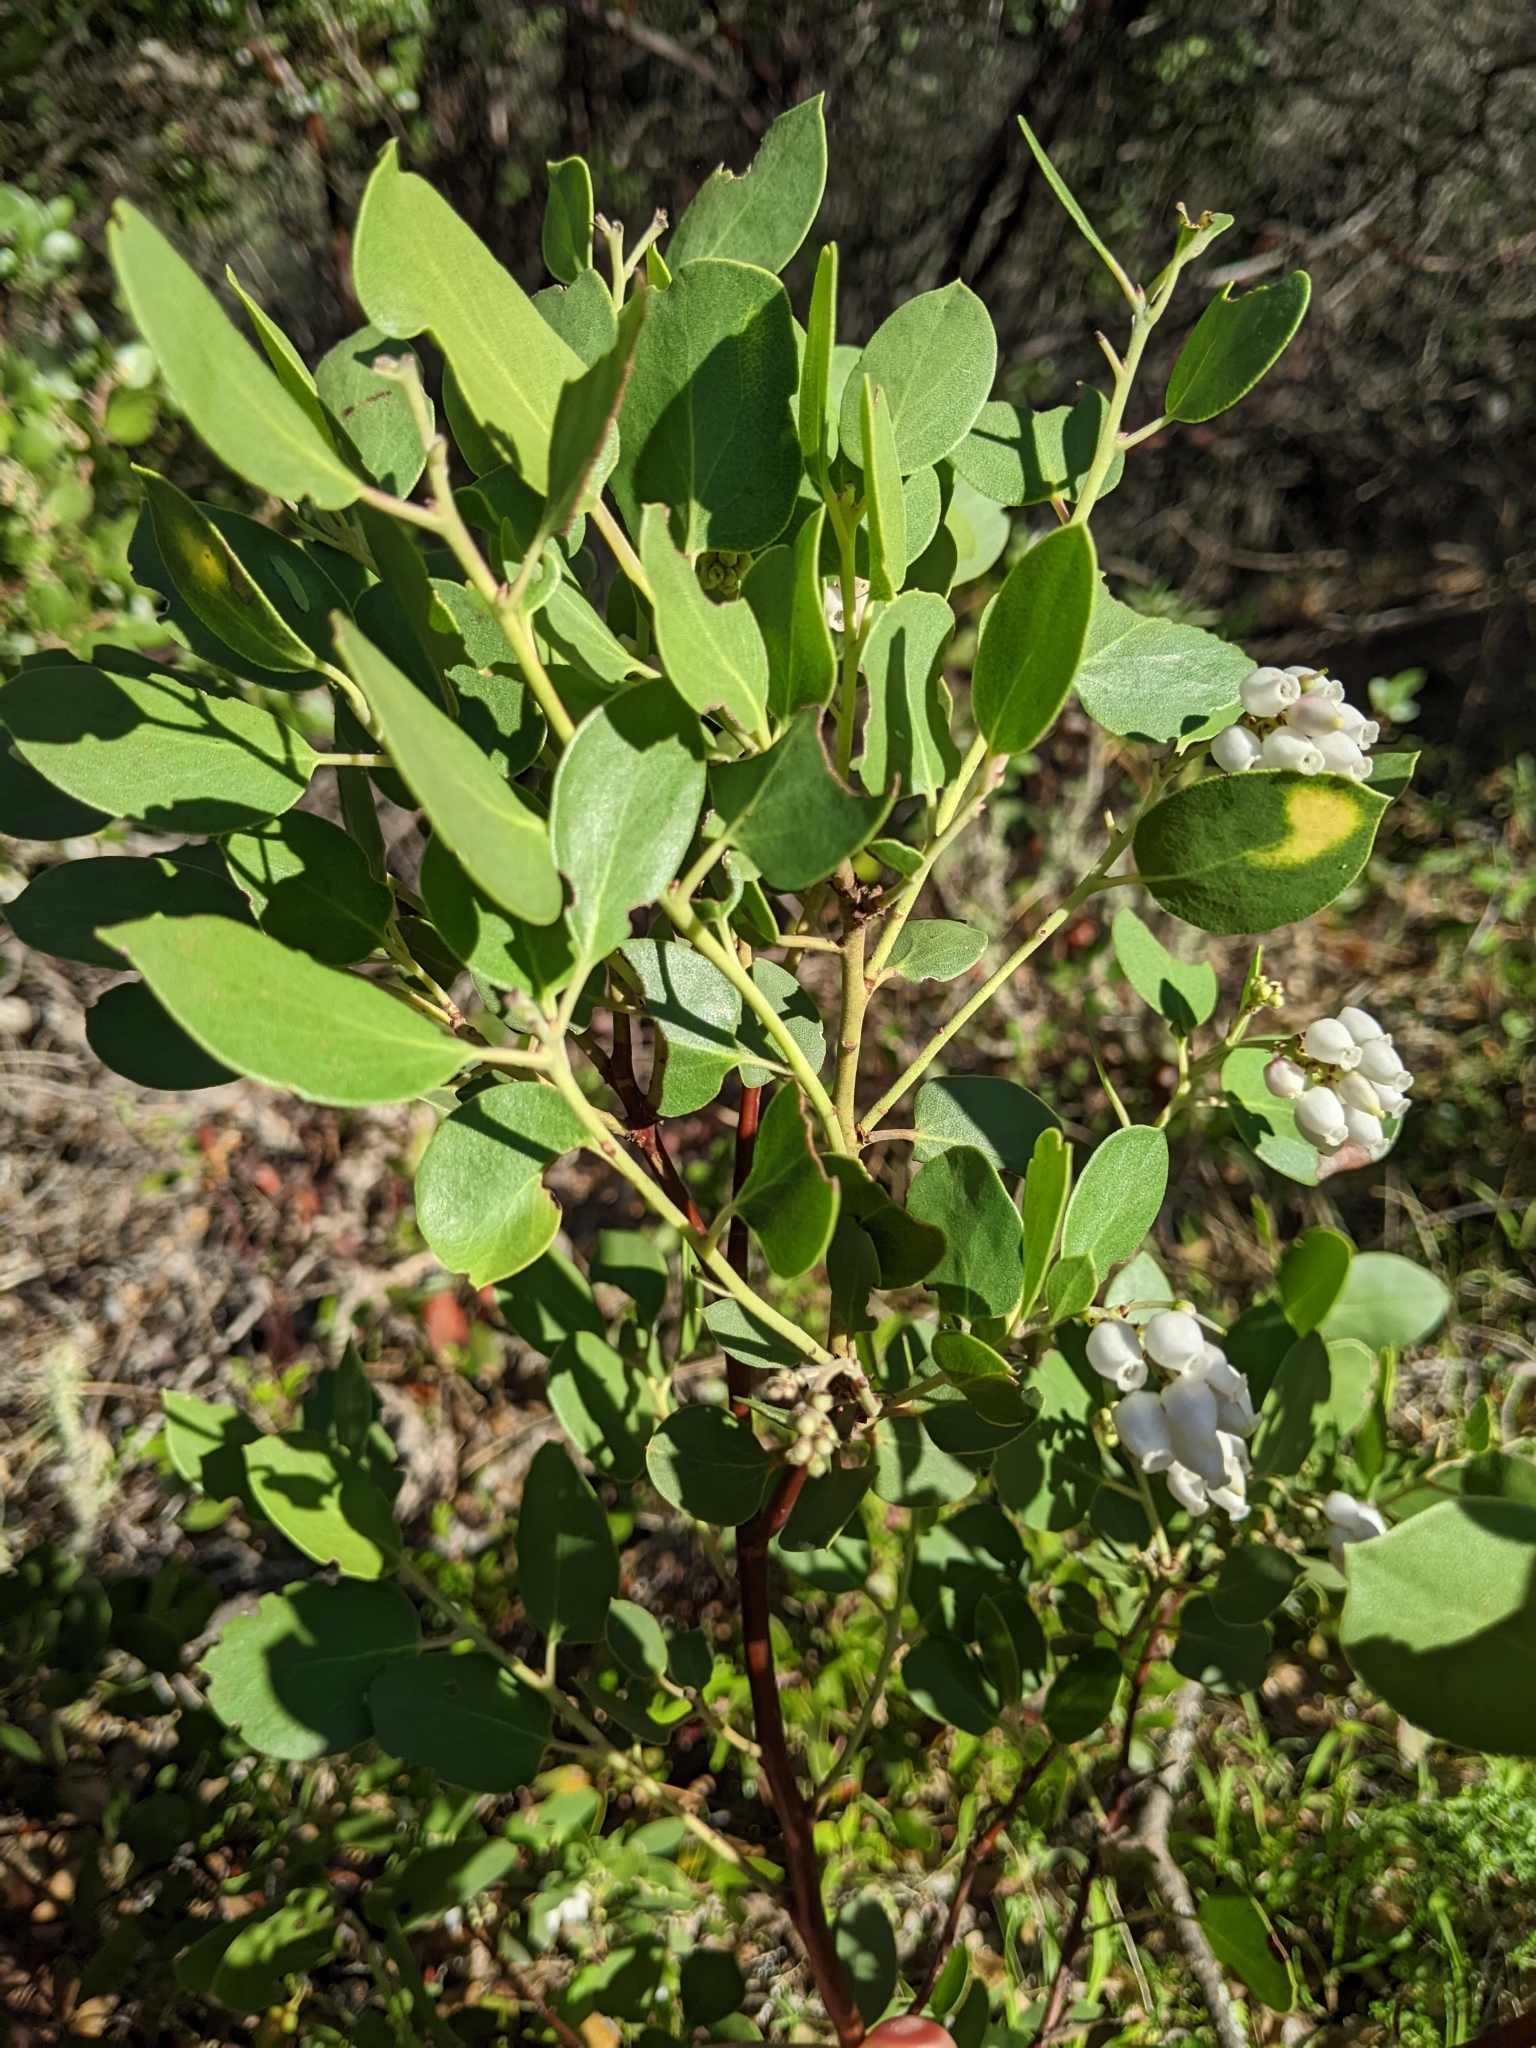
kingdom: Plantae
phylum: Tracheophyta
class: Magnoliopsida
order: Ericales
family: Ericaceae
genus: Arctostaphylos
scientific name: Arctostaphylos manzanita
